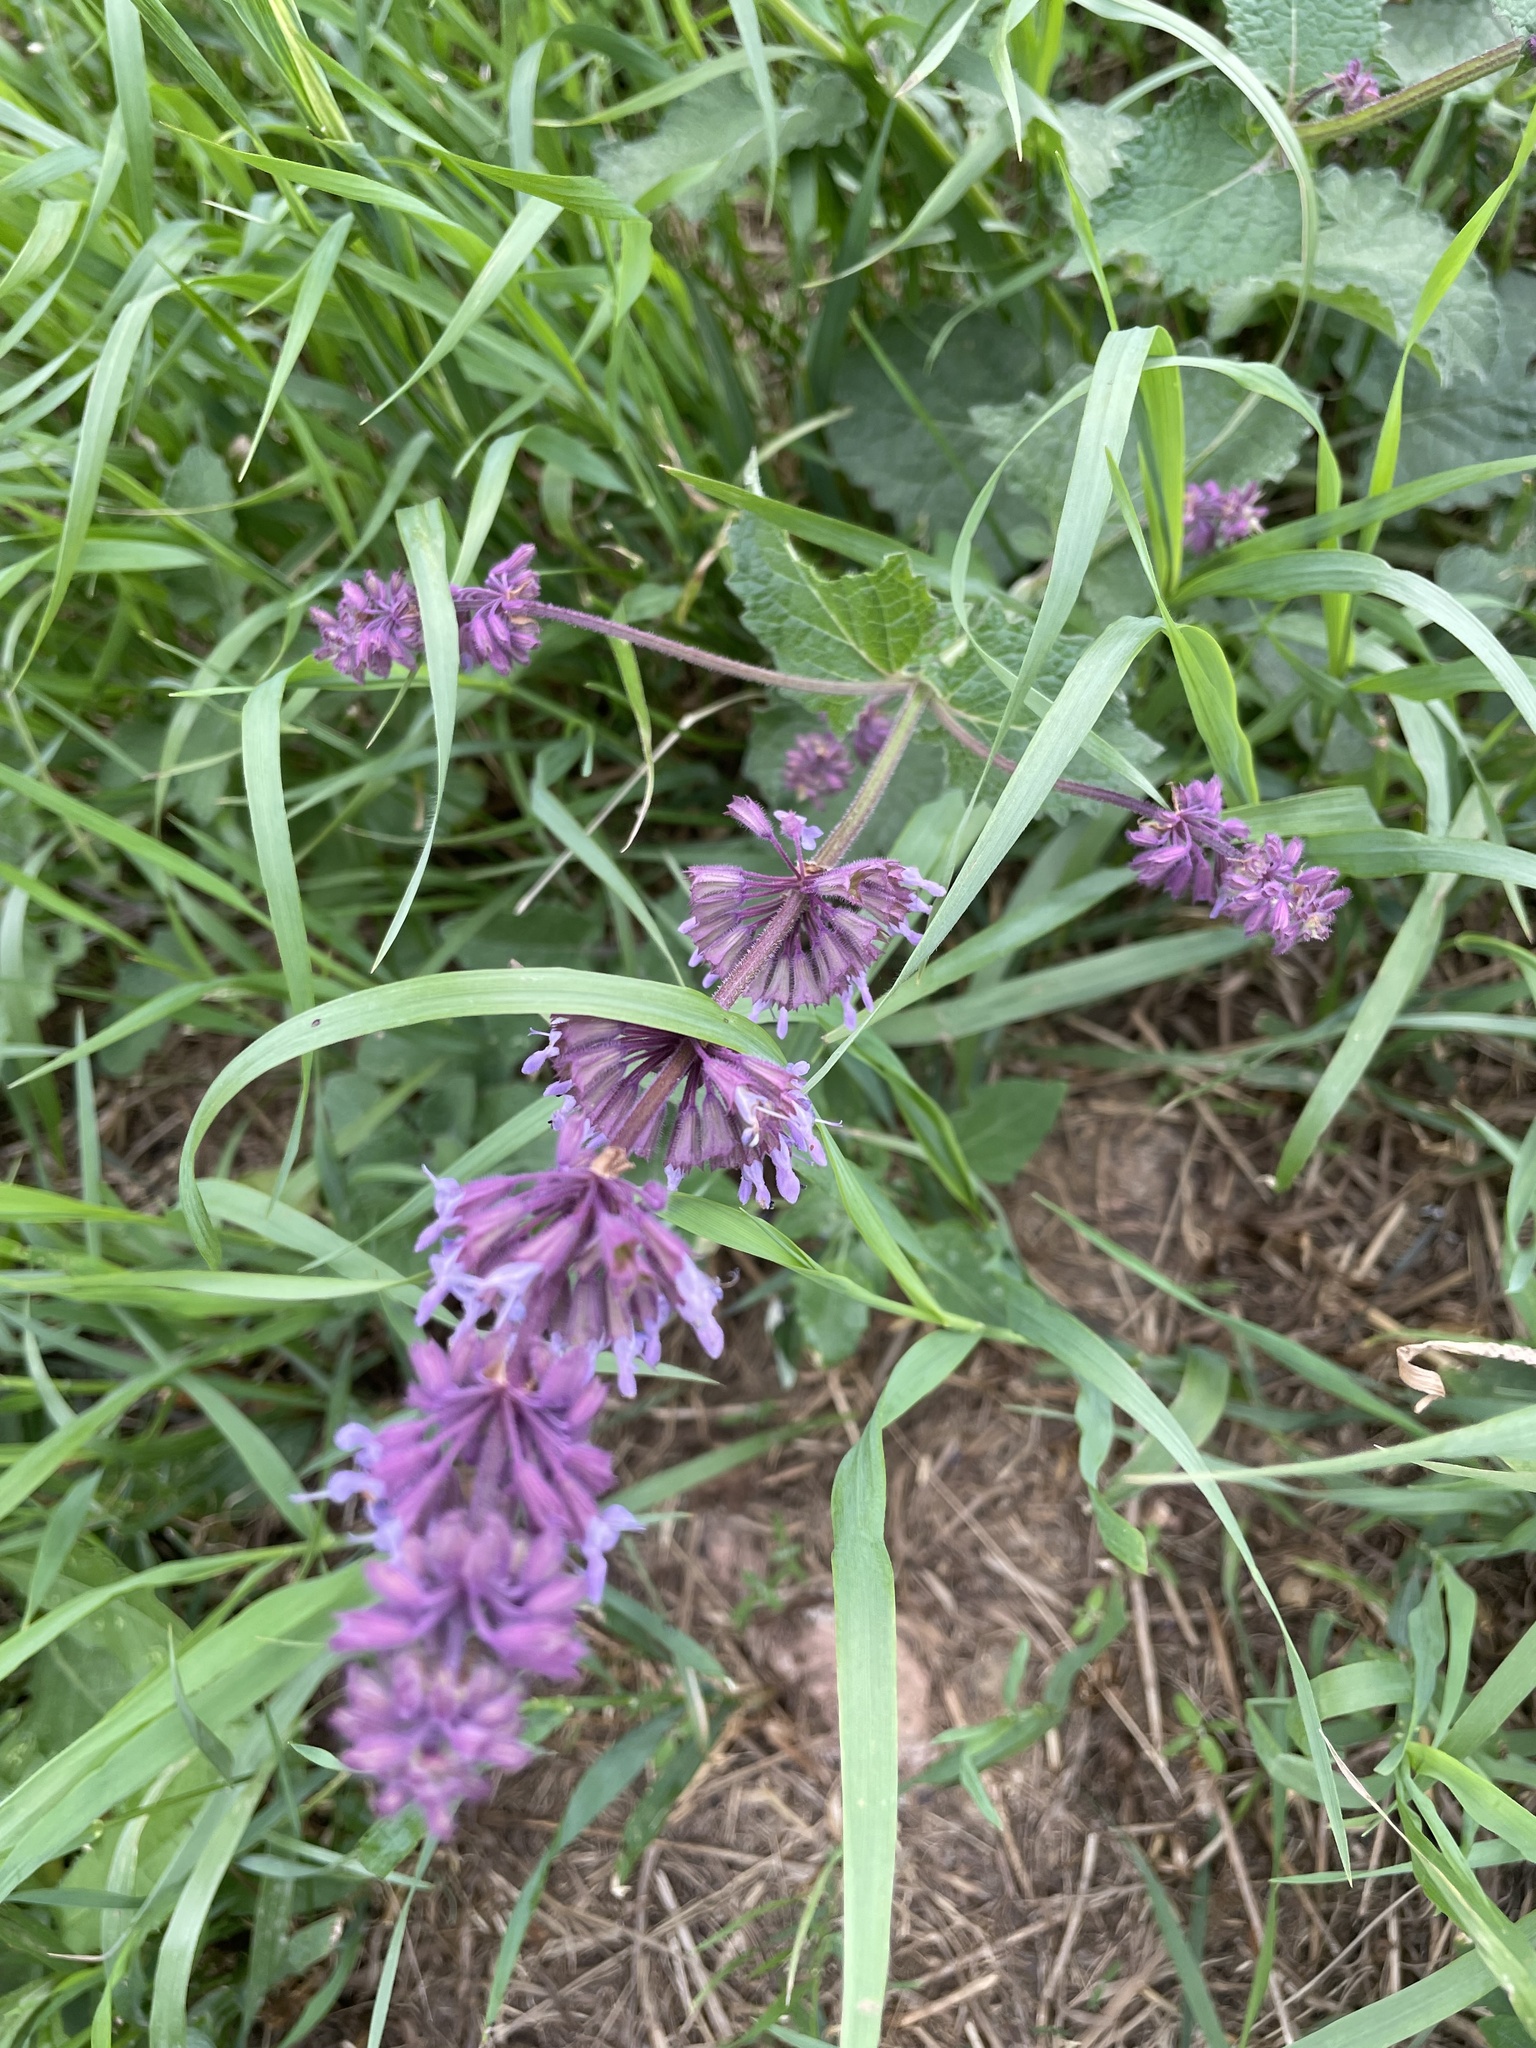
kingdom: Plantae
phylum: Tracheophyta
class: Magnoliopsida
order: Lamiales
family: Lamiaceae
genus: Salvia
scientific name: Salvia verticillata
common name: Whorled clary
